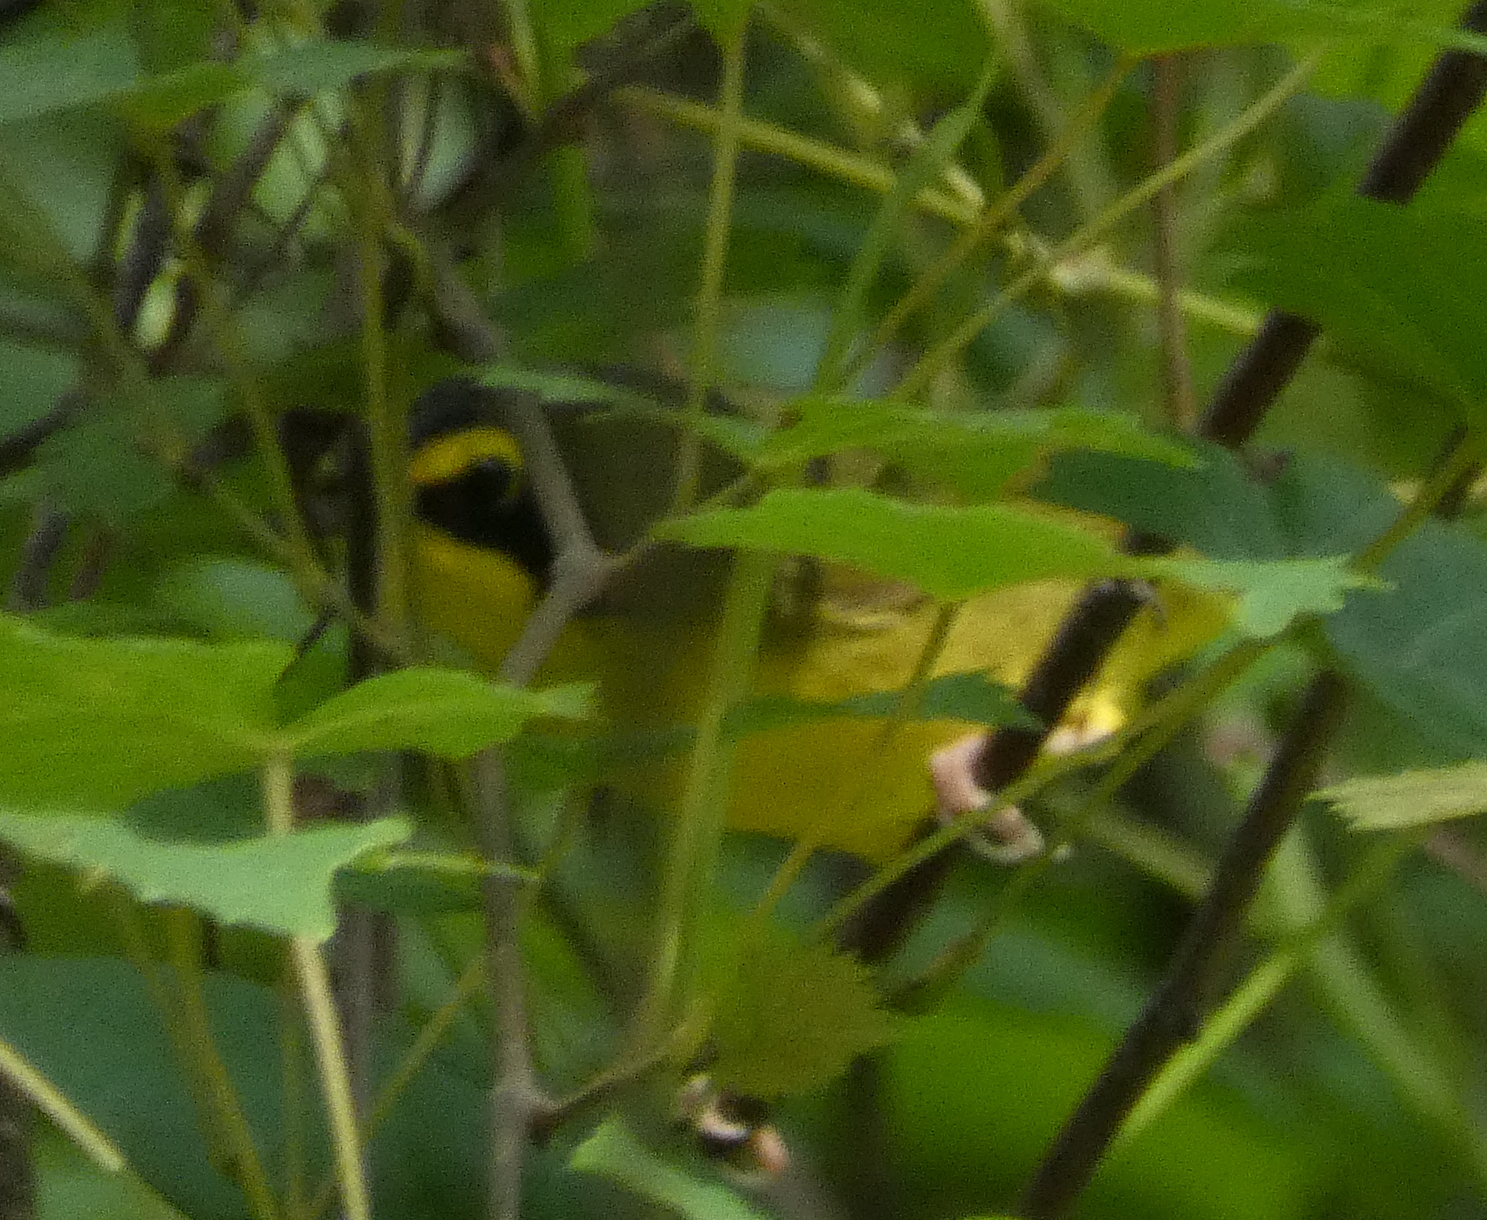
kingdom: Animalia
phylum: Chordata
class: Aves
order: Passeriformes
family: Parulidae
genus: Geothlypis
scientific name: Geothlypis formosa
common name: Kentucky warbler
